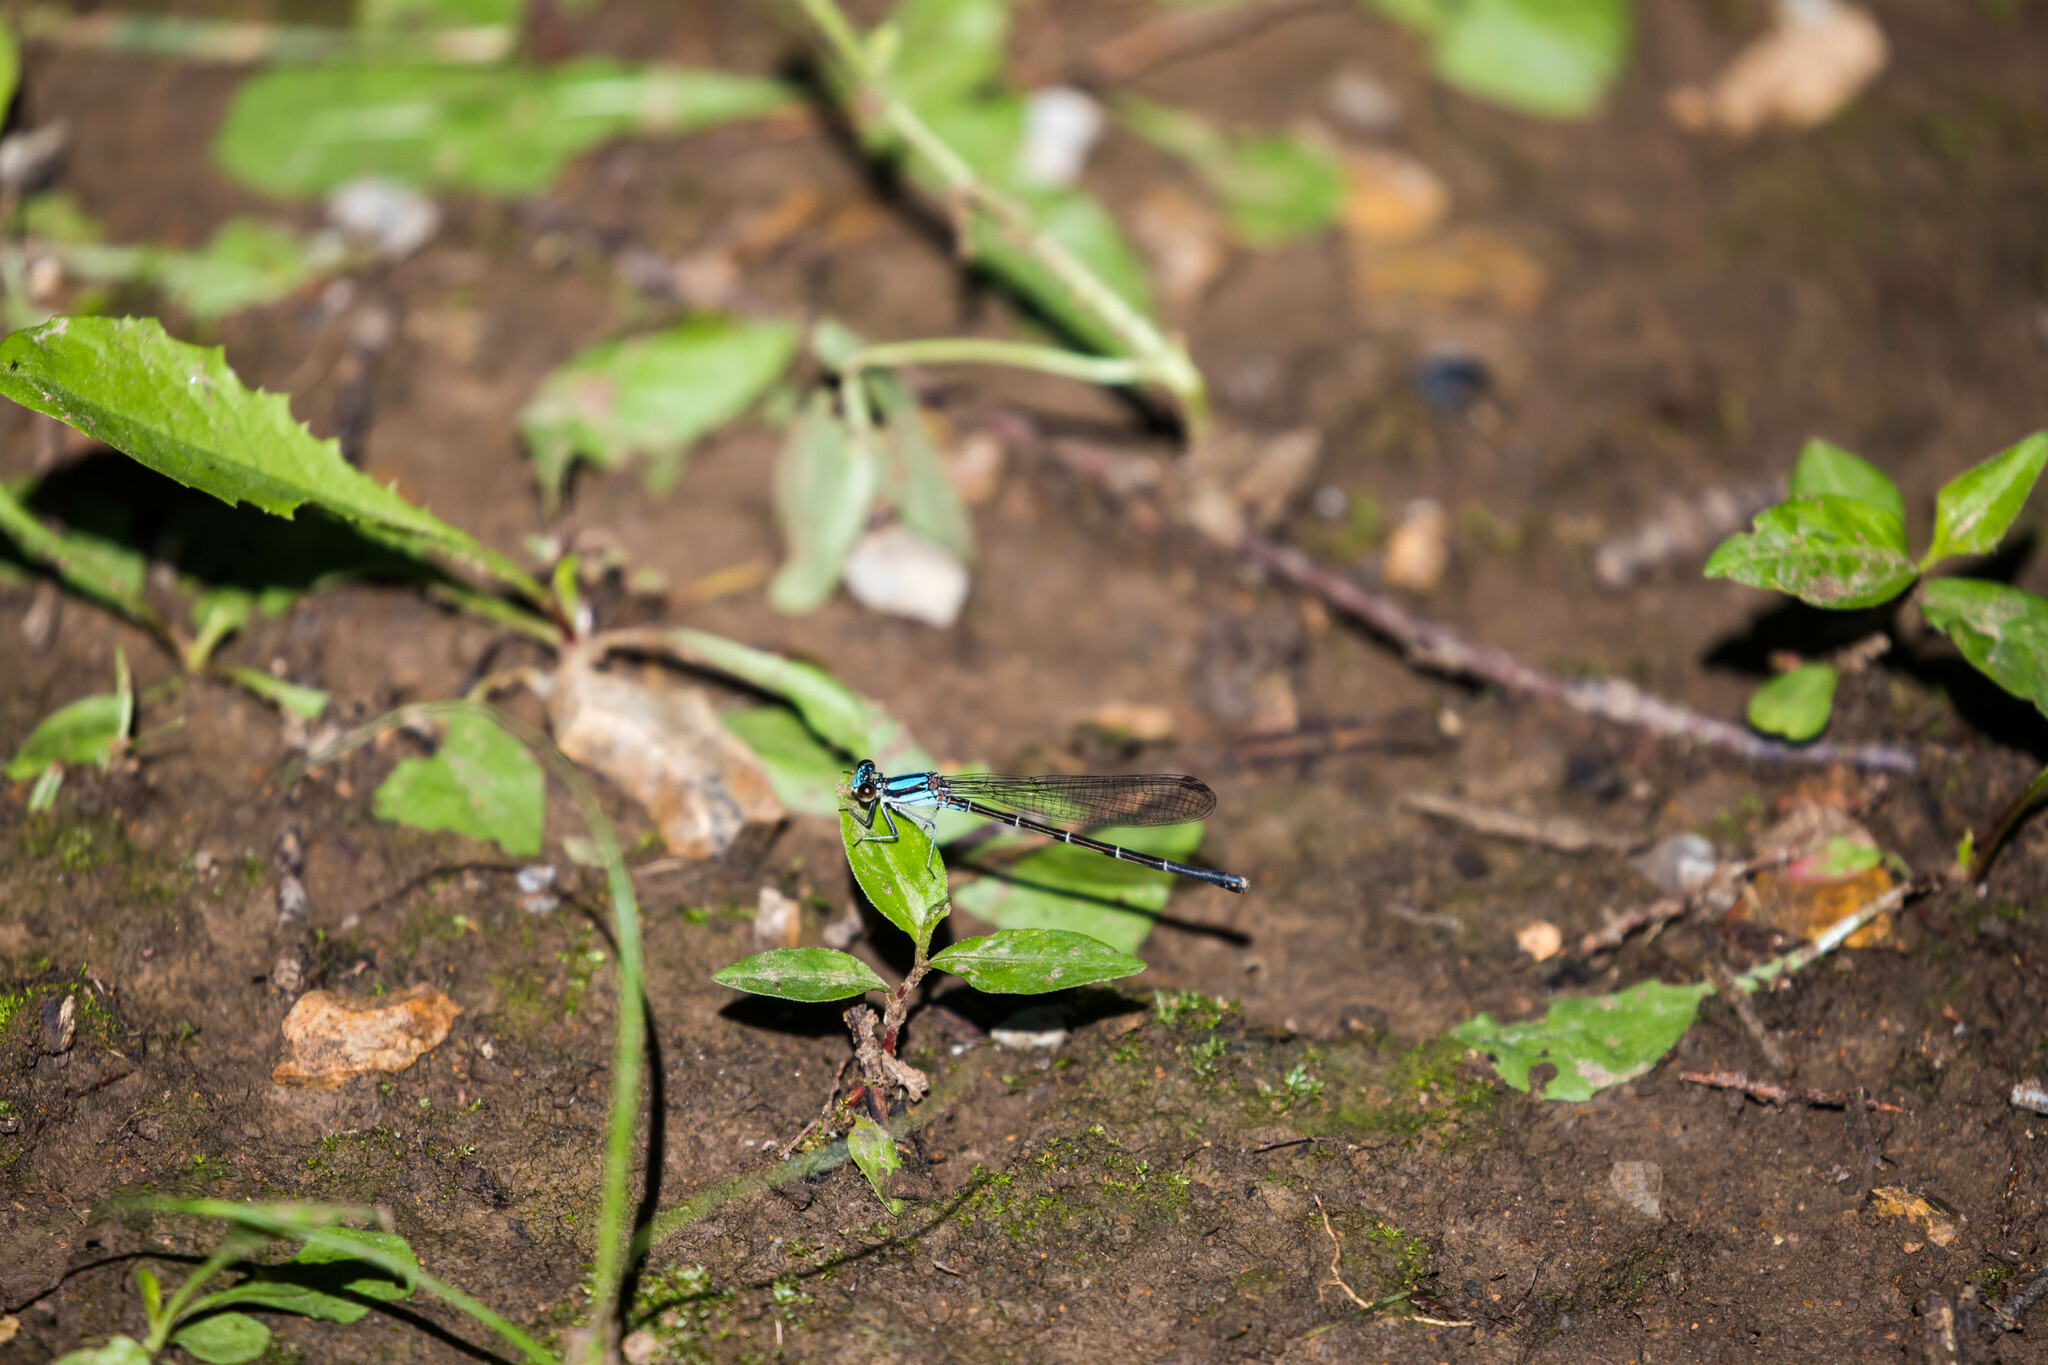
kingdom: Animalia
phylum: Arthropoda
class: Insecta
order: Odonata
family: Coenagrionidae
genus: Argia
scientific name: Argia tibialis
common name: Blue-tipped dancer
